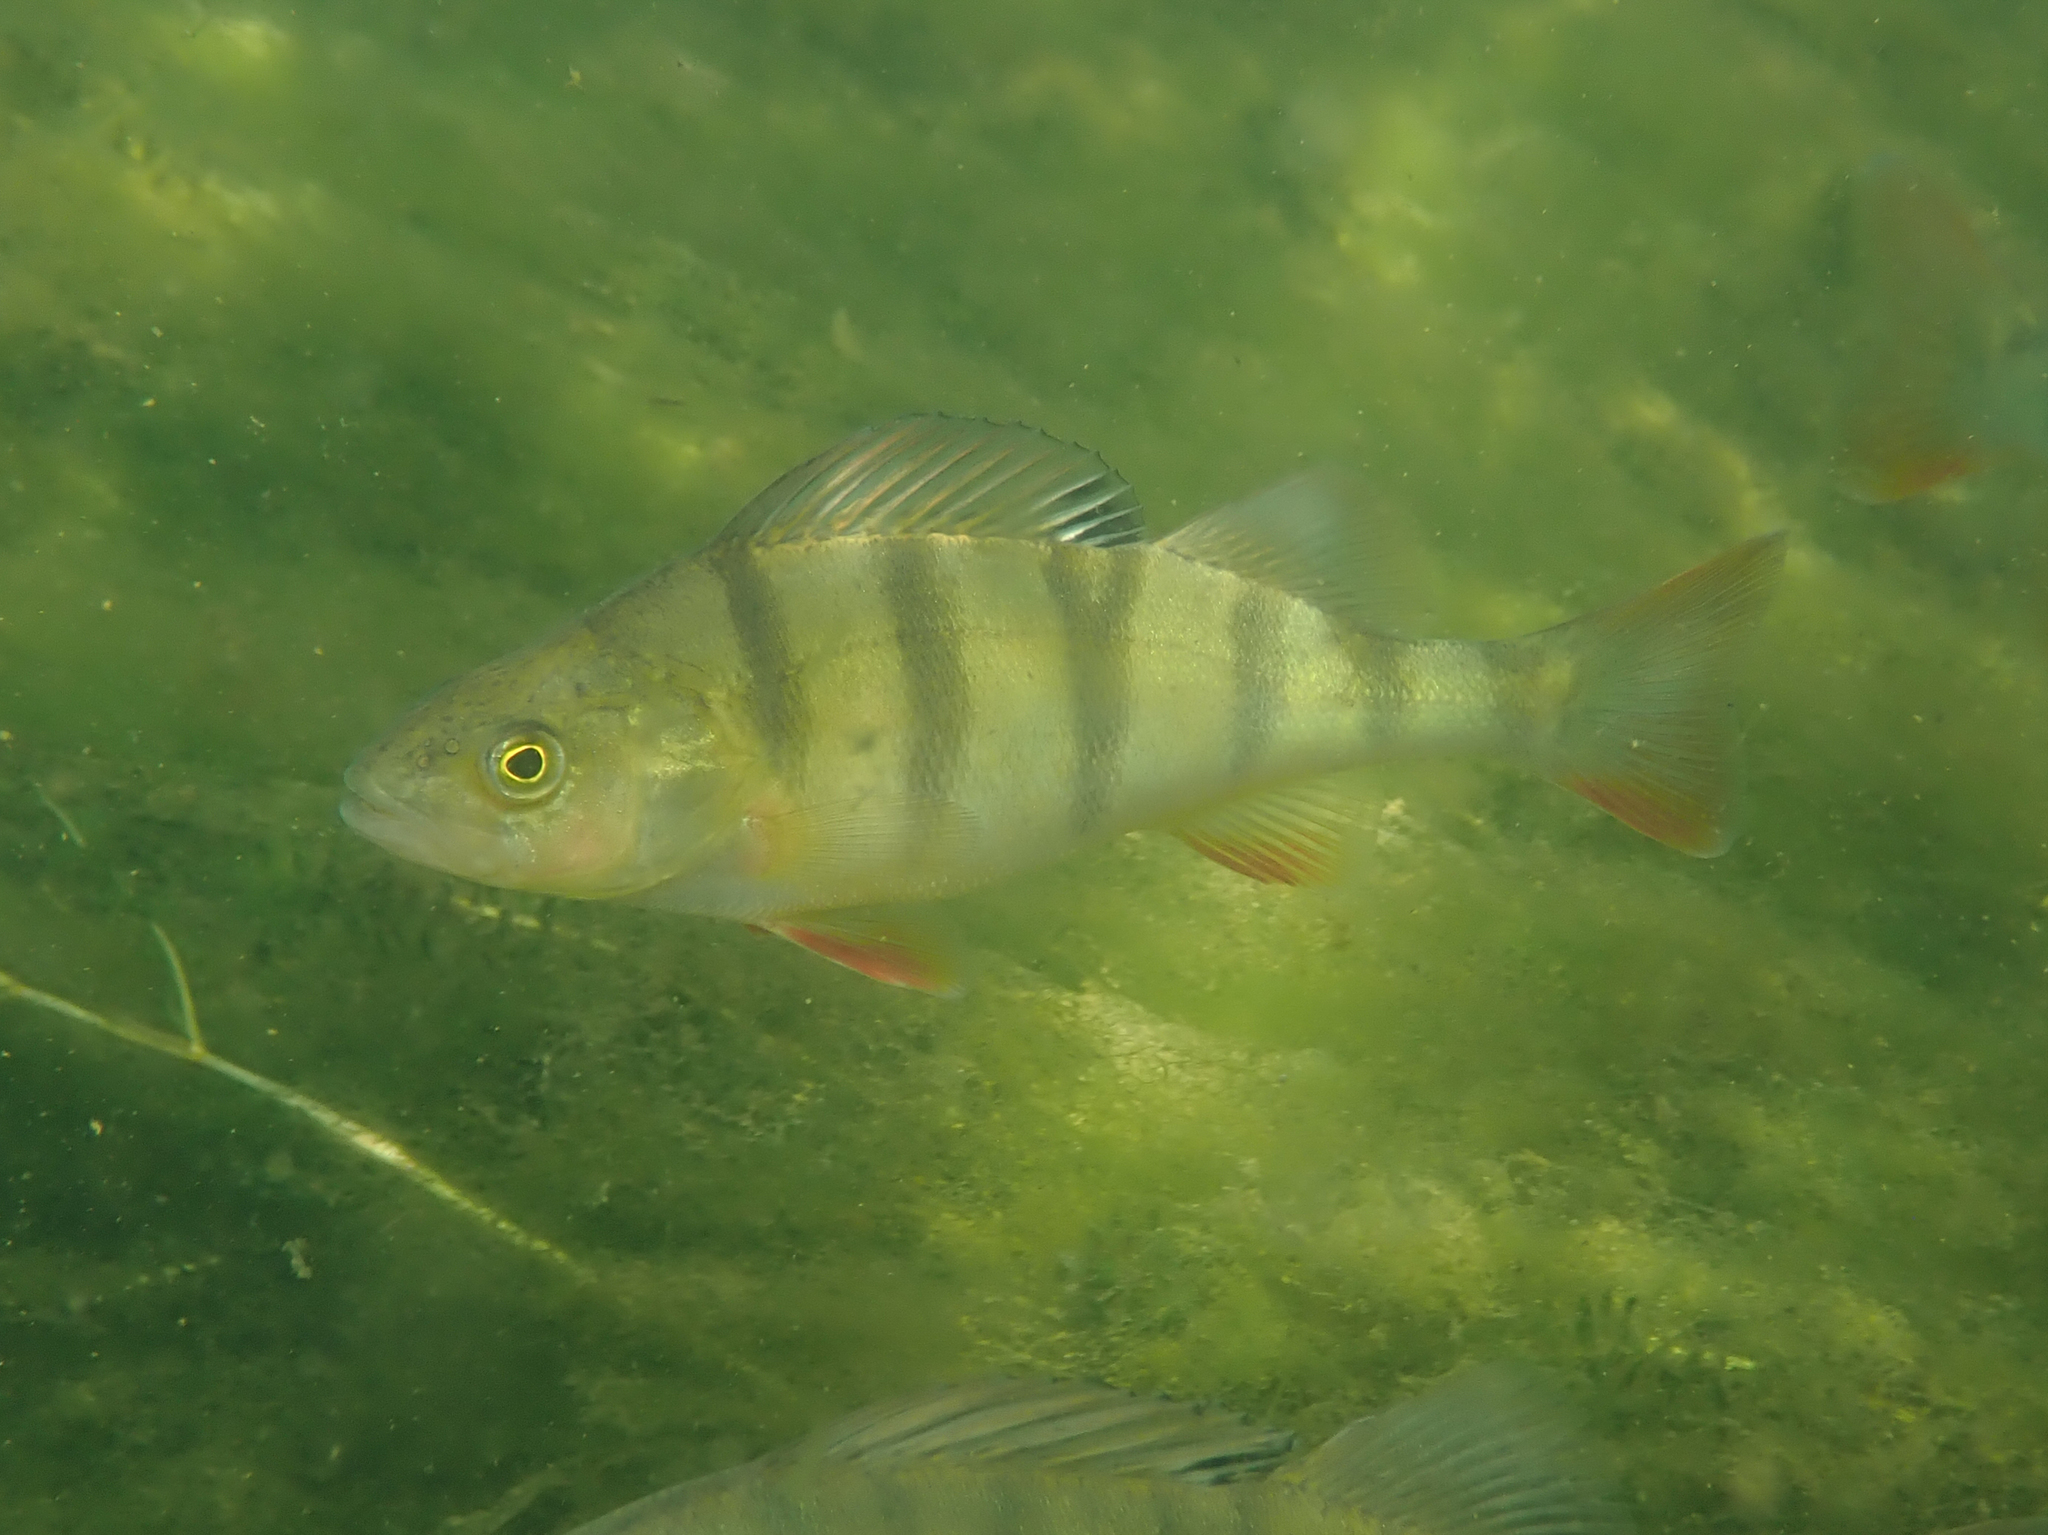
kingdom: Animalia
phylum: Chordata
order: Perciformes
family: Percidae
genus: Perca
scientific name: Perca fluviatilis
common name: Perch
